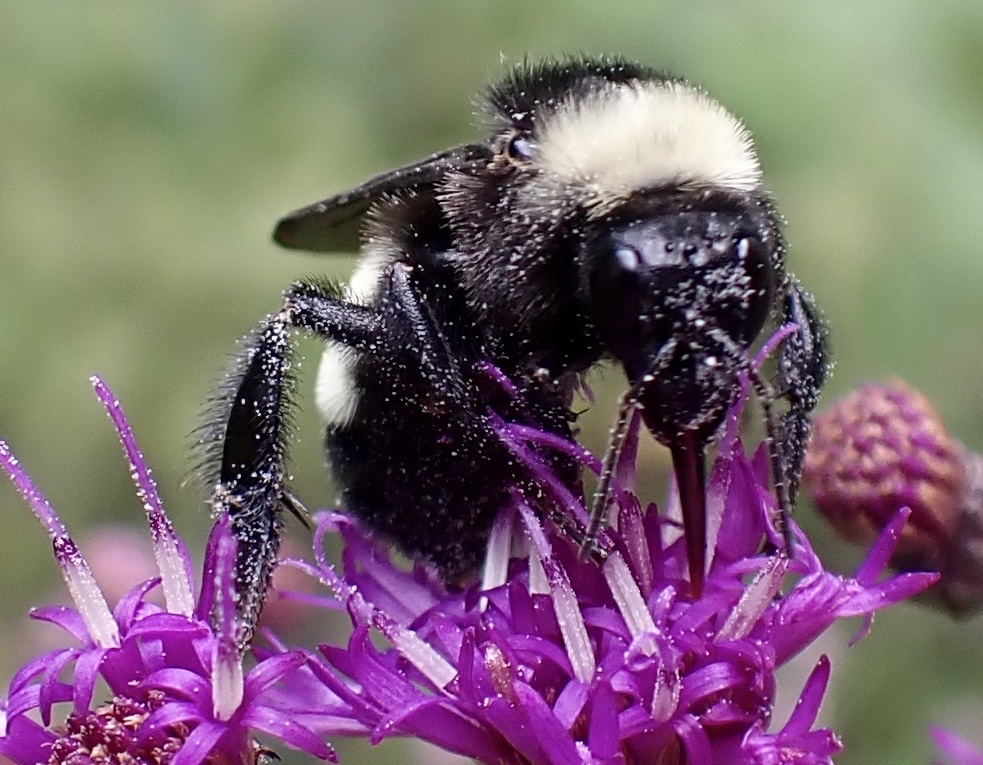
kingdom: Animalia
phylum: Arthropoda
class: Insecta
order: Hymenoptera
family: Apidae
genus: Bombus
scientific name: Bombus pensylvanicus
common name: Bumble bee
